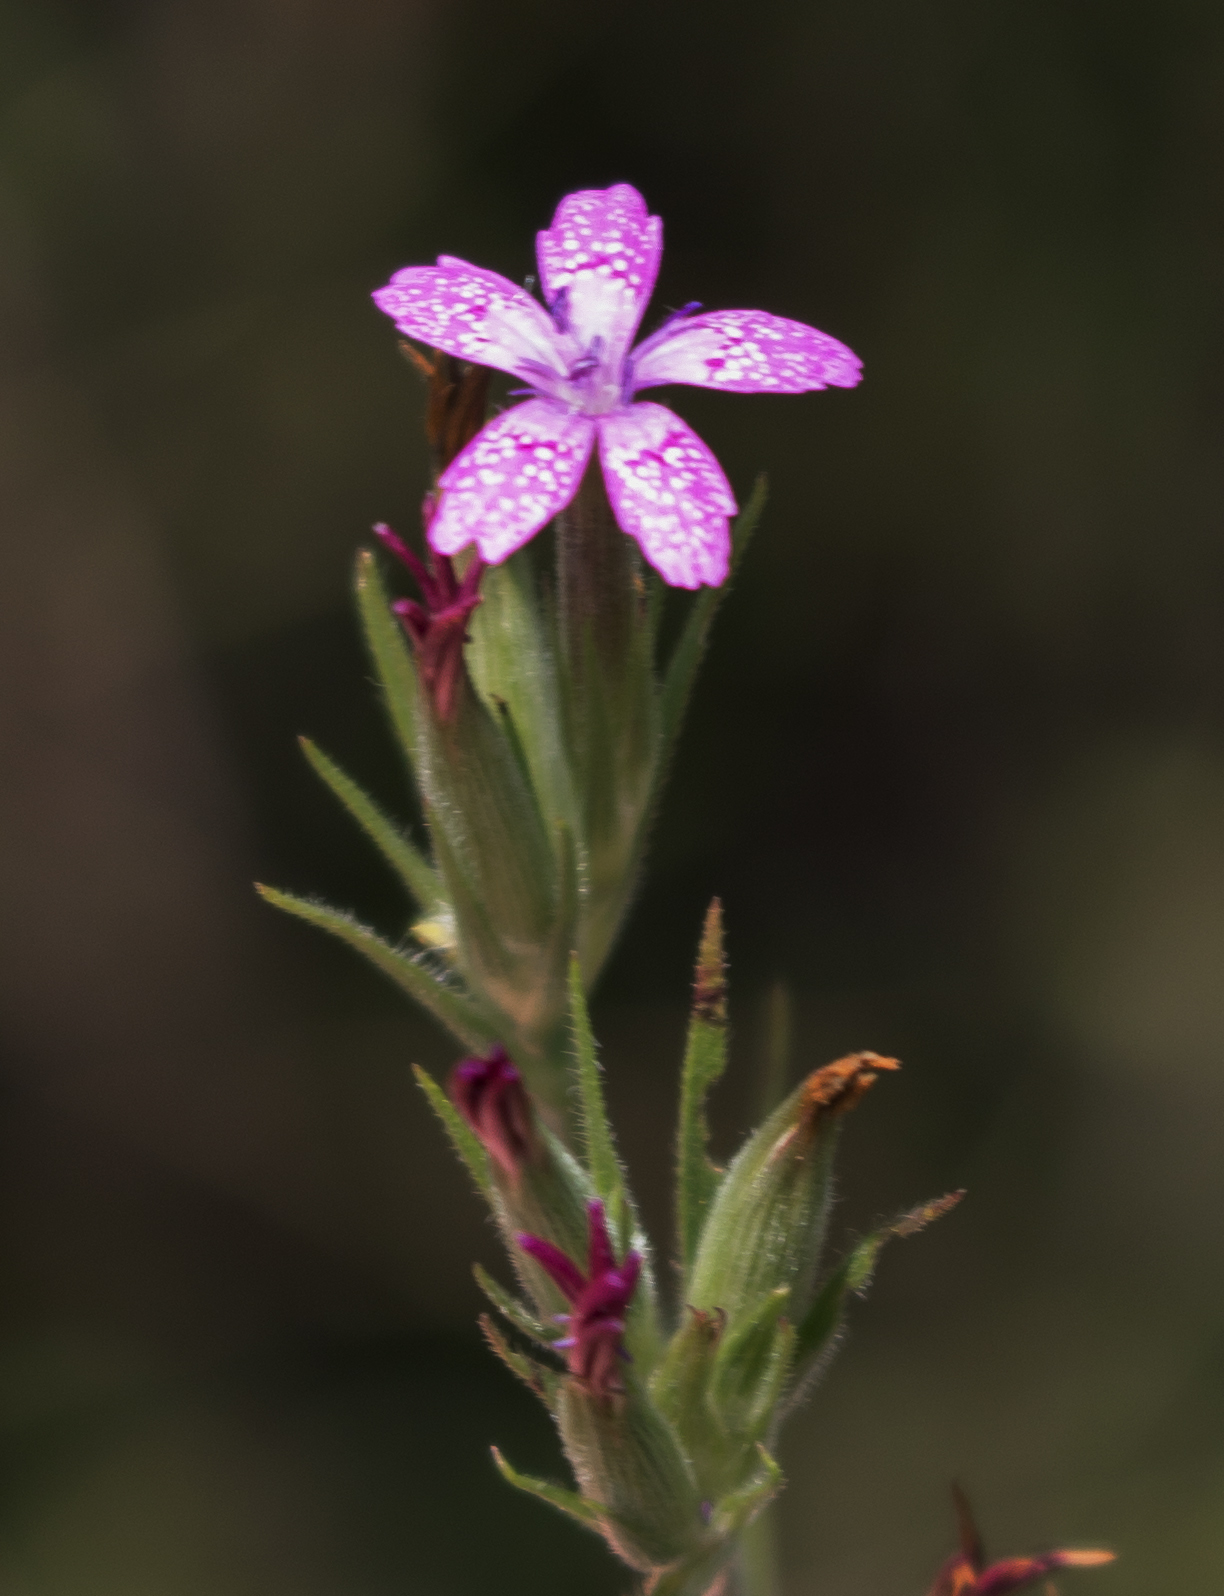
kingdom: Plantae
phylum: Tracheophyta
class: Magnoliopsida
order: Caryophyllales
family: Caryophyllaceae
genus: Dianthus
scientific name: Dianthus armeria
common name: Deptford pink
